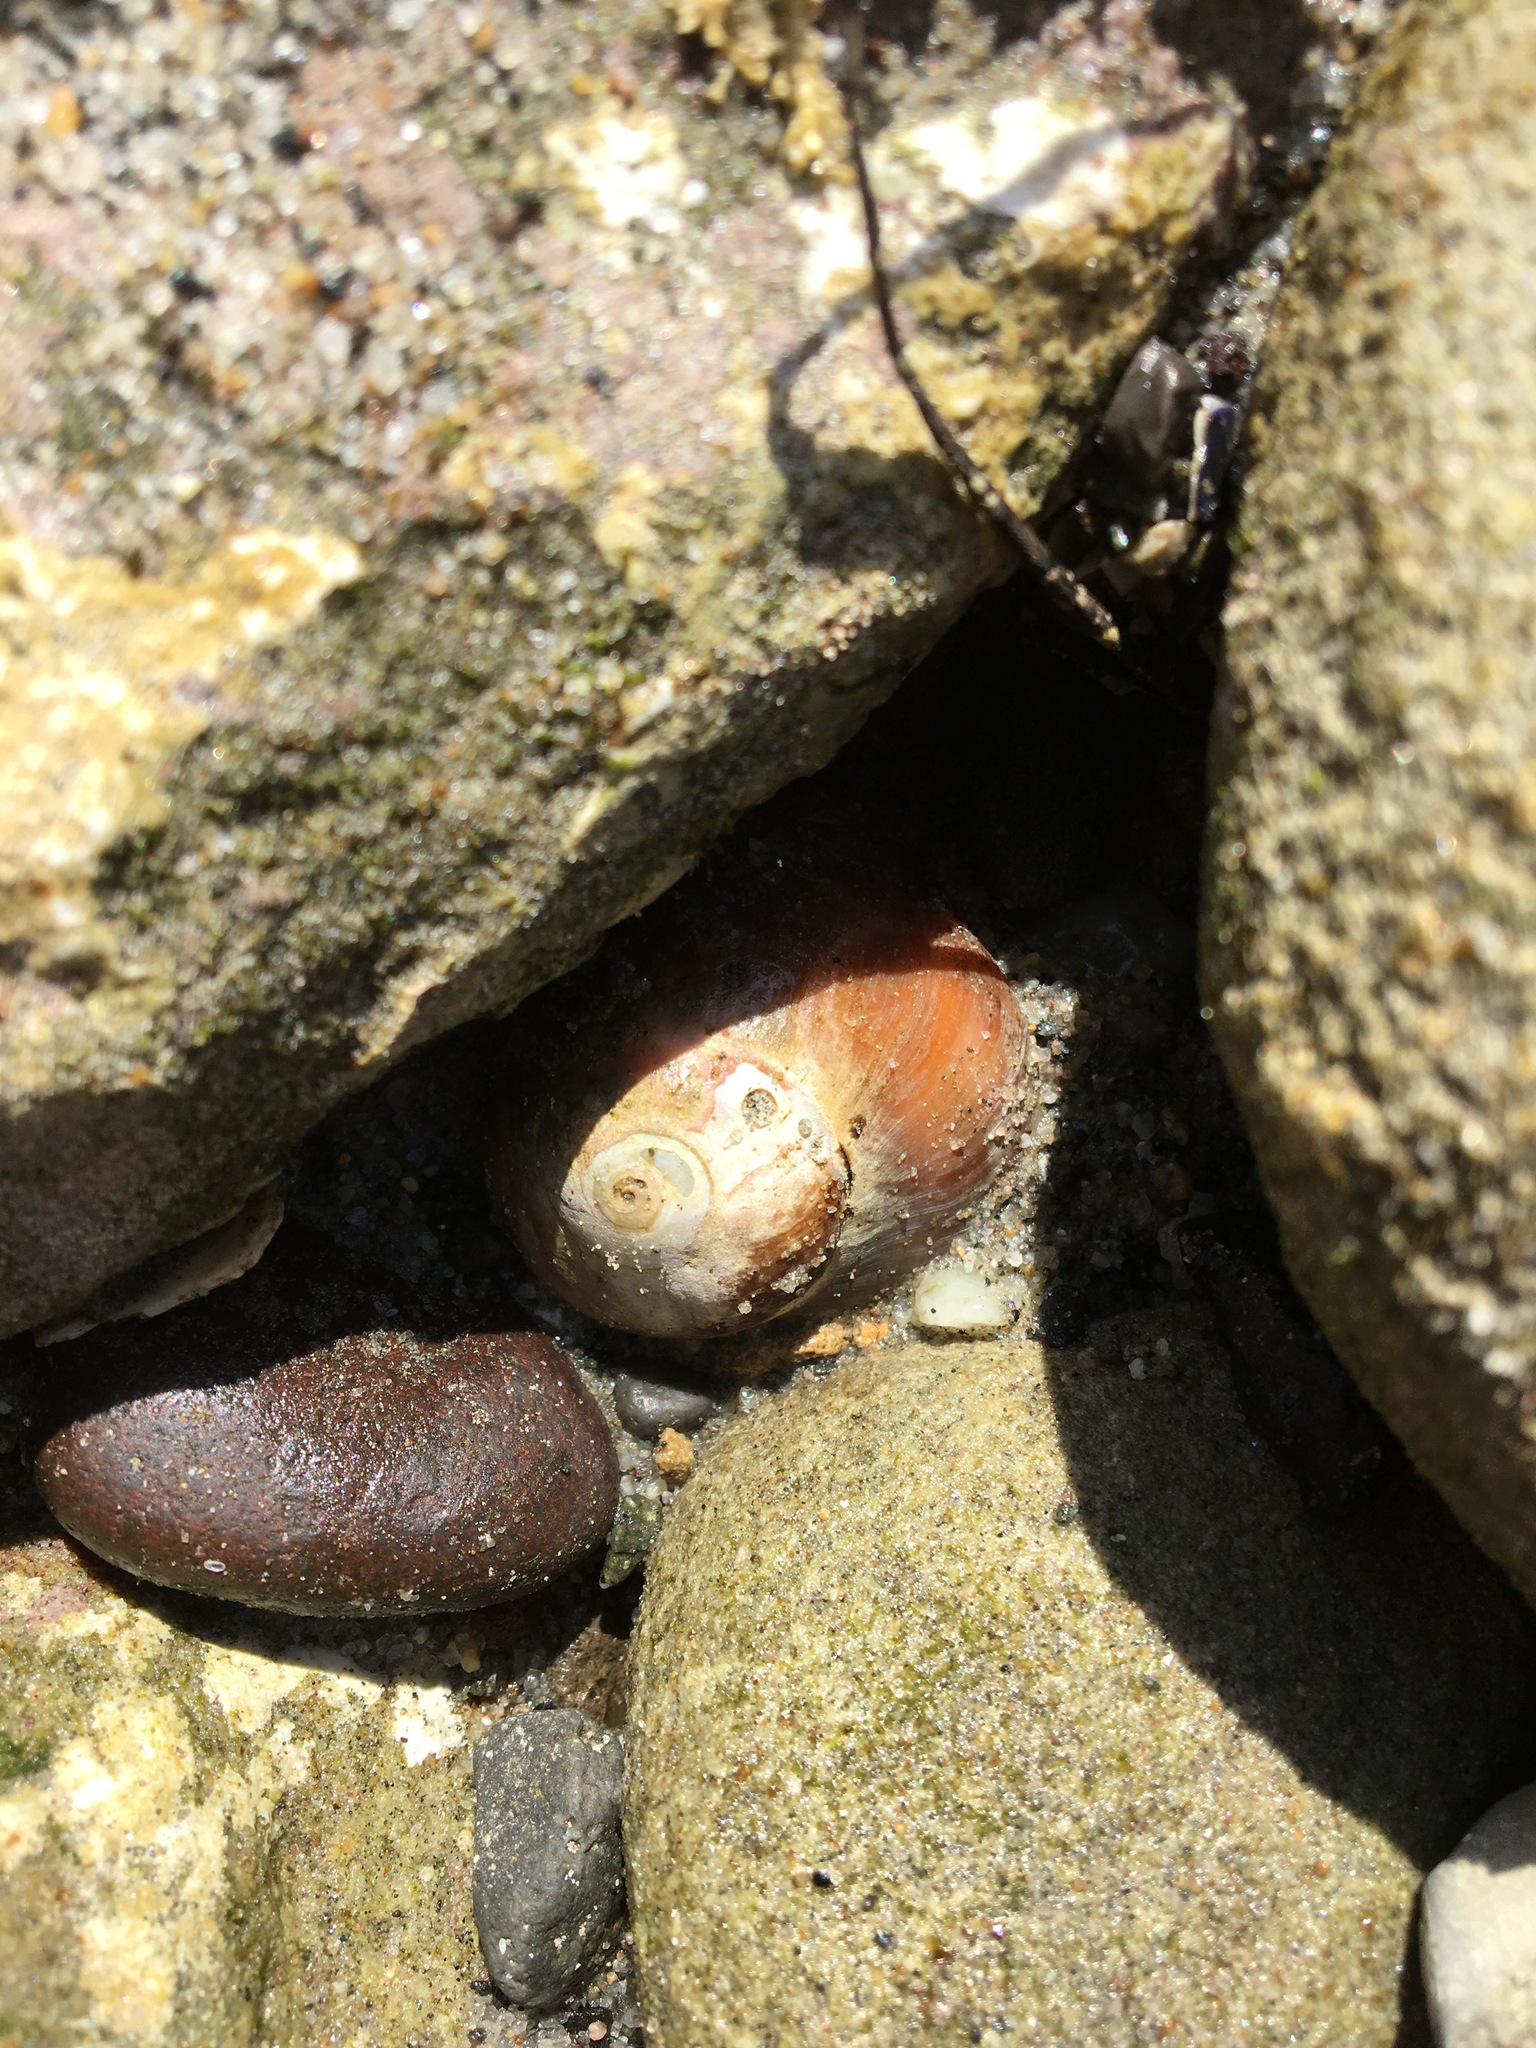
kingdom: Animalia
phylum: Mollusca
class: Gastropoda
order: Trochida
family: Tegulidae
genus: Norrisia
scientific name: Norrisia norrisii
